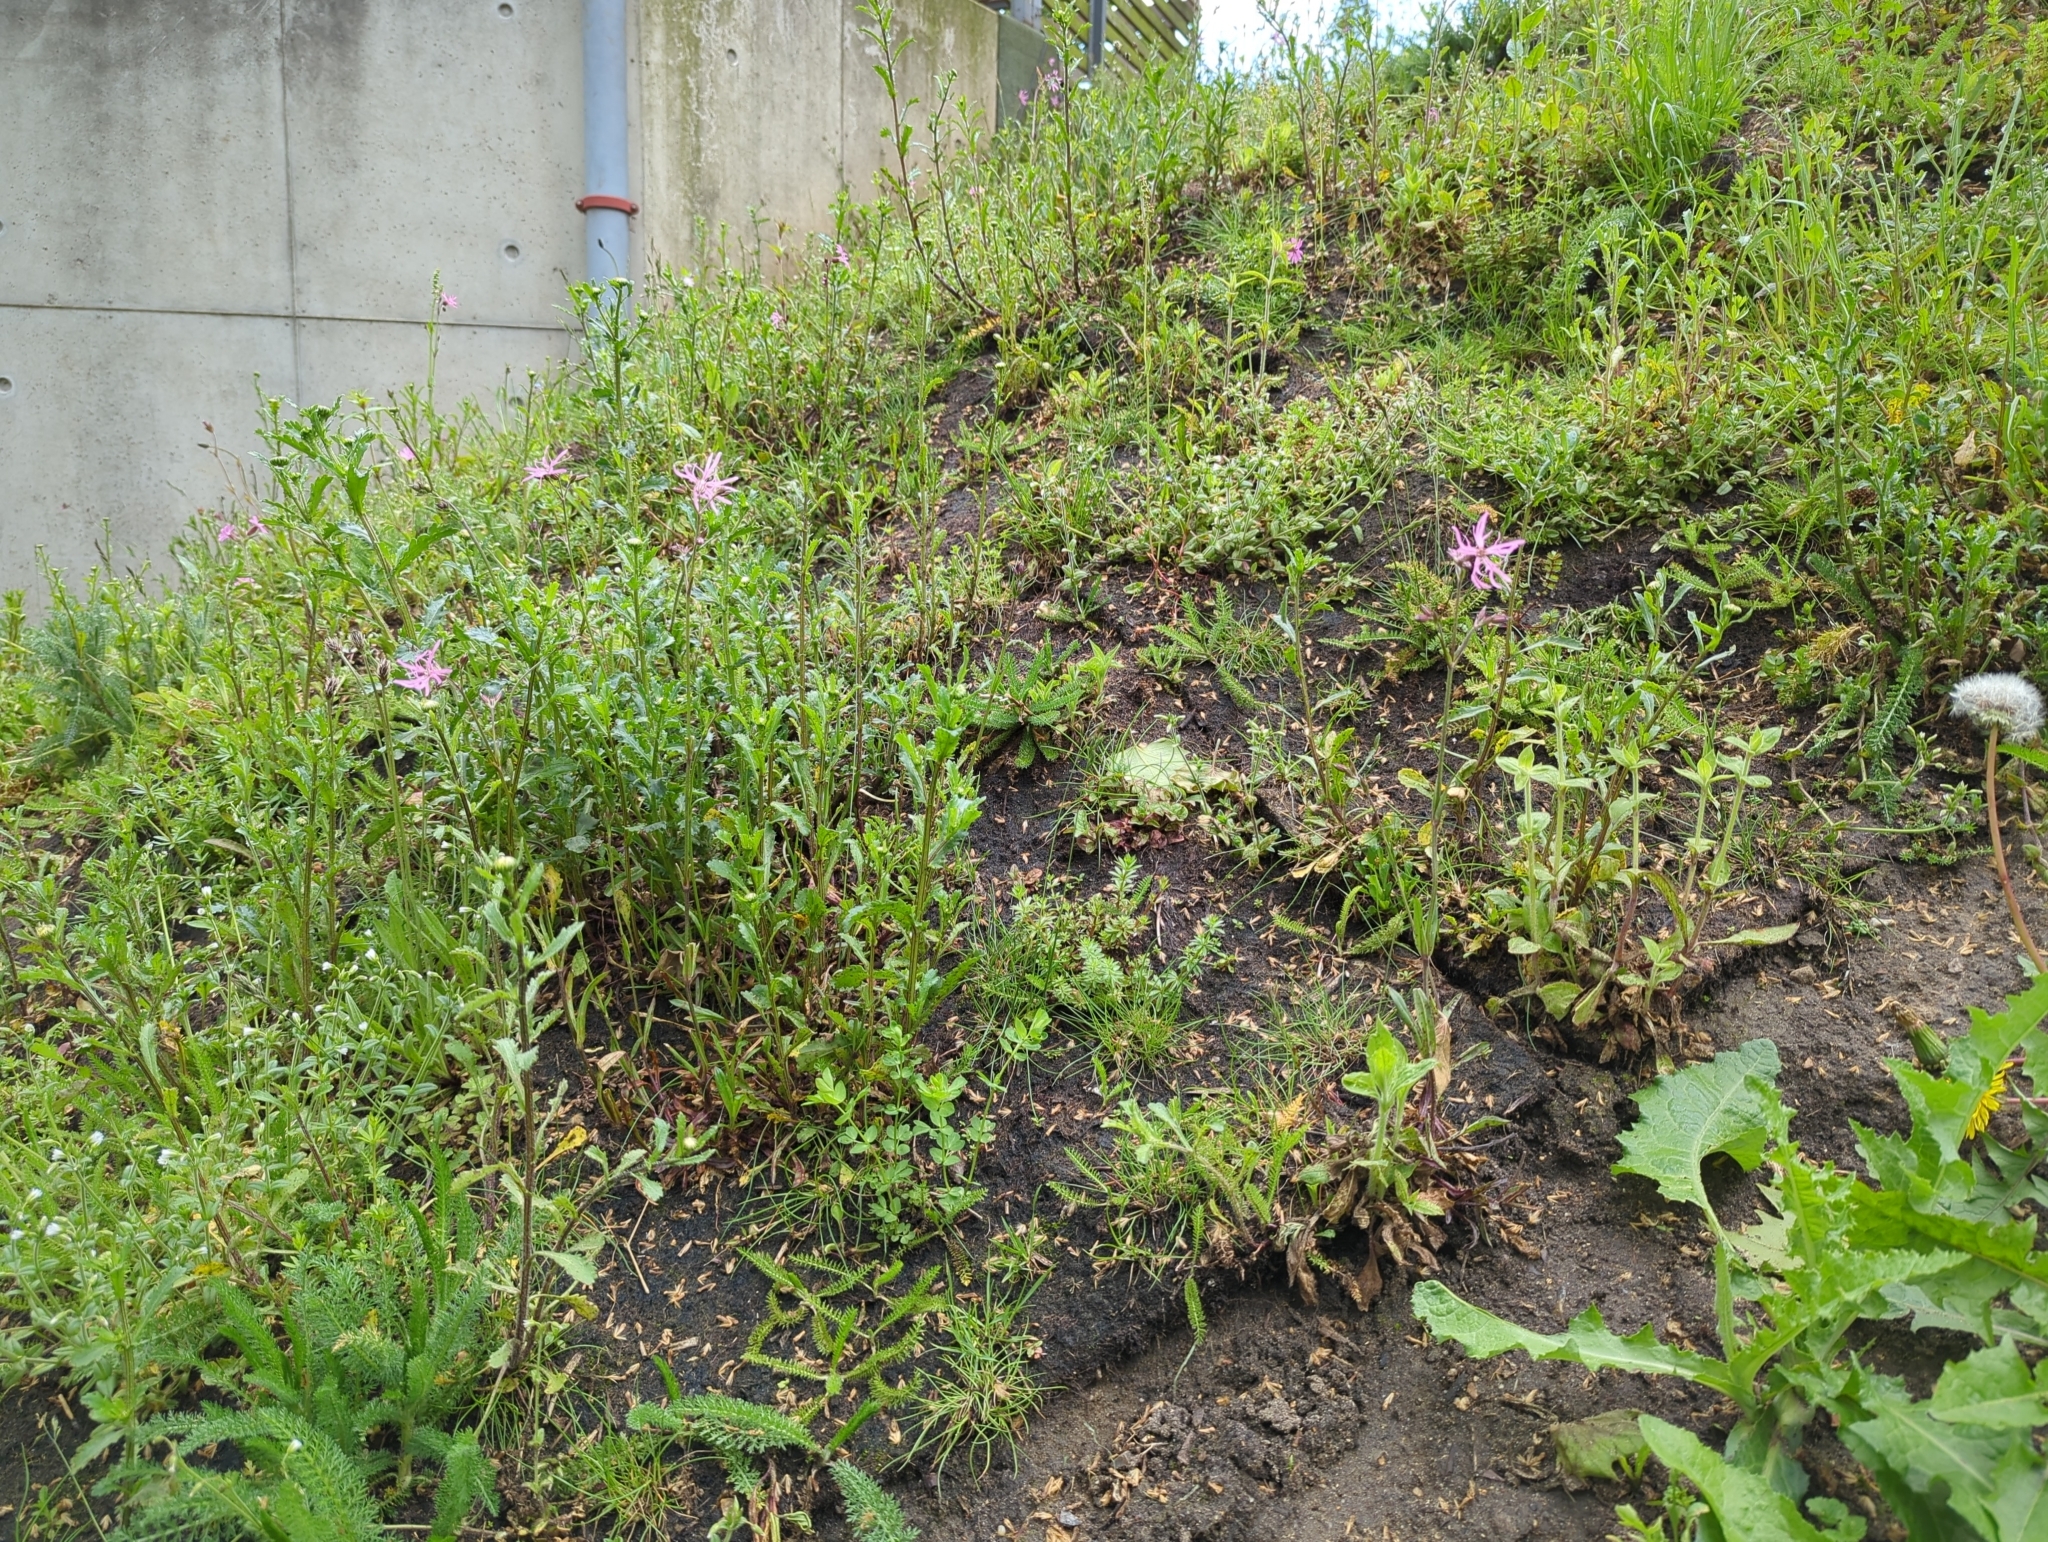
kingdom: Plantae
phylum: Tracheophyta
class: Magnoliopsida
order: Caryophyllales
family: Caryophyllaceae
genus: Silene
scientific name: Silene flos-cuculi
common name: Ragged-robin
